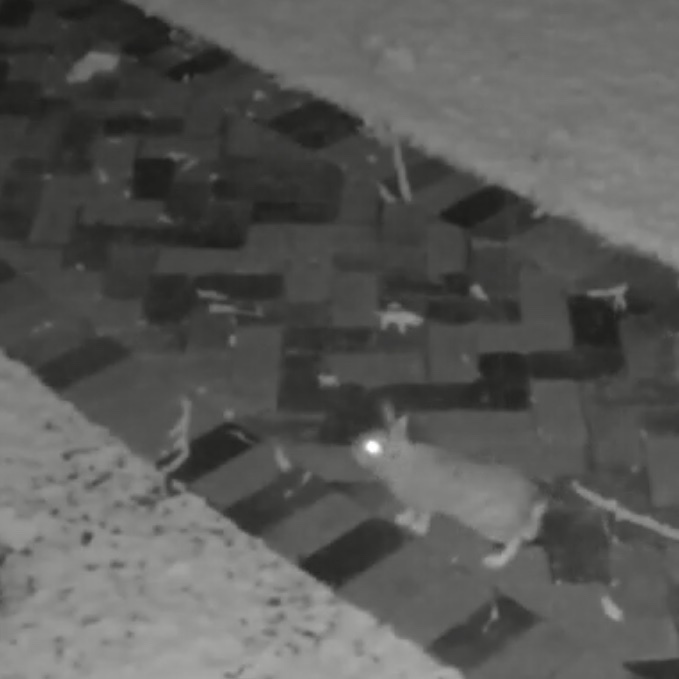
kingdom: Animalia
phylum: Chordata
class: Mammalia
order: Lagomorpha
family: Leporidae
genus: Sylvilagus
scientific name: Sylvilagus floridanus
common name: Eastern cottontail
